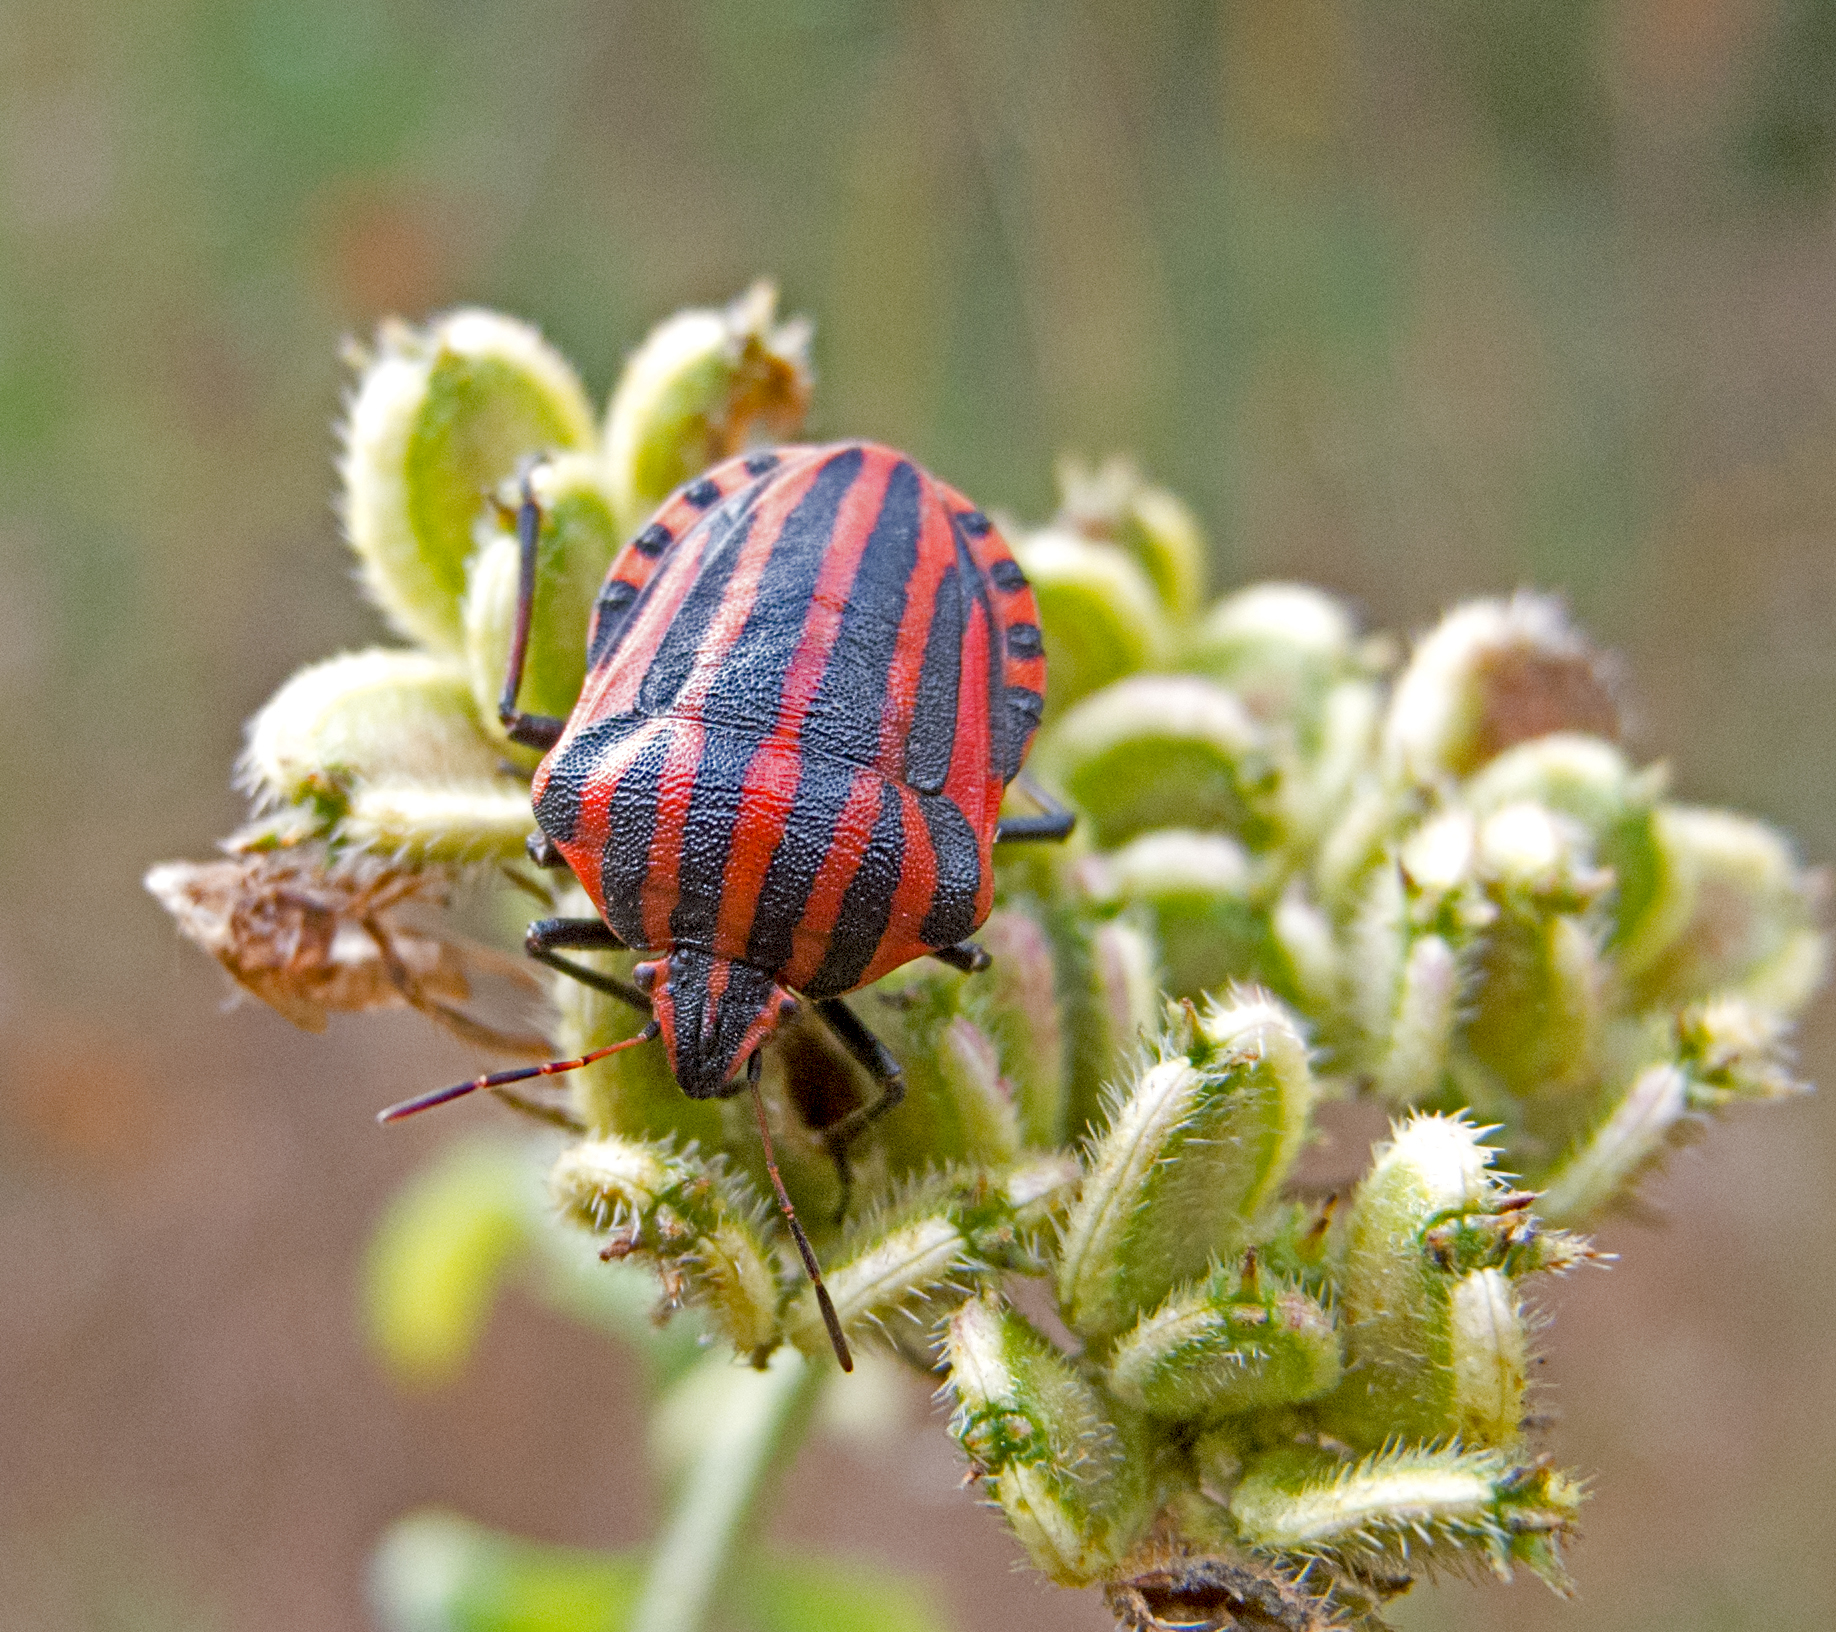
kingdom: Animalia
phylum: Arthropoda
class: Insecta
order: Hemiptera
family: Pentatomidae
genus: Graphosoma
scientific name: Graphosoma italicum
